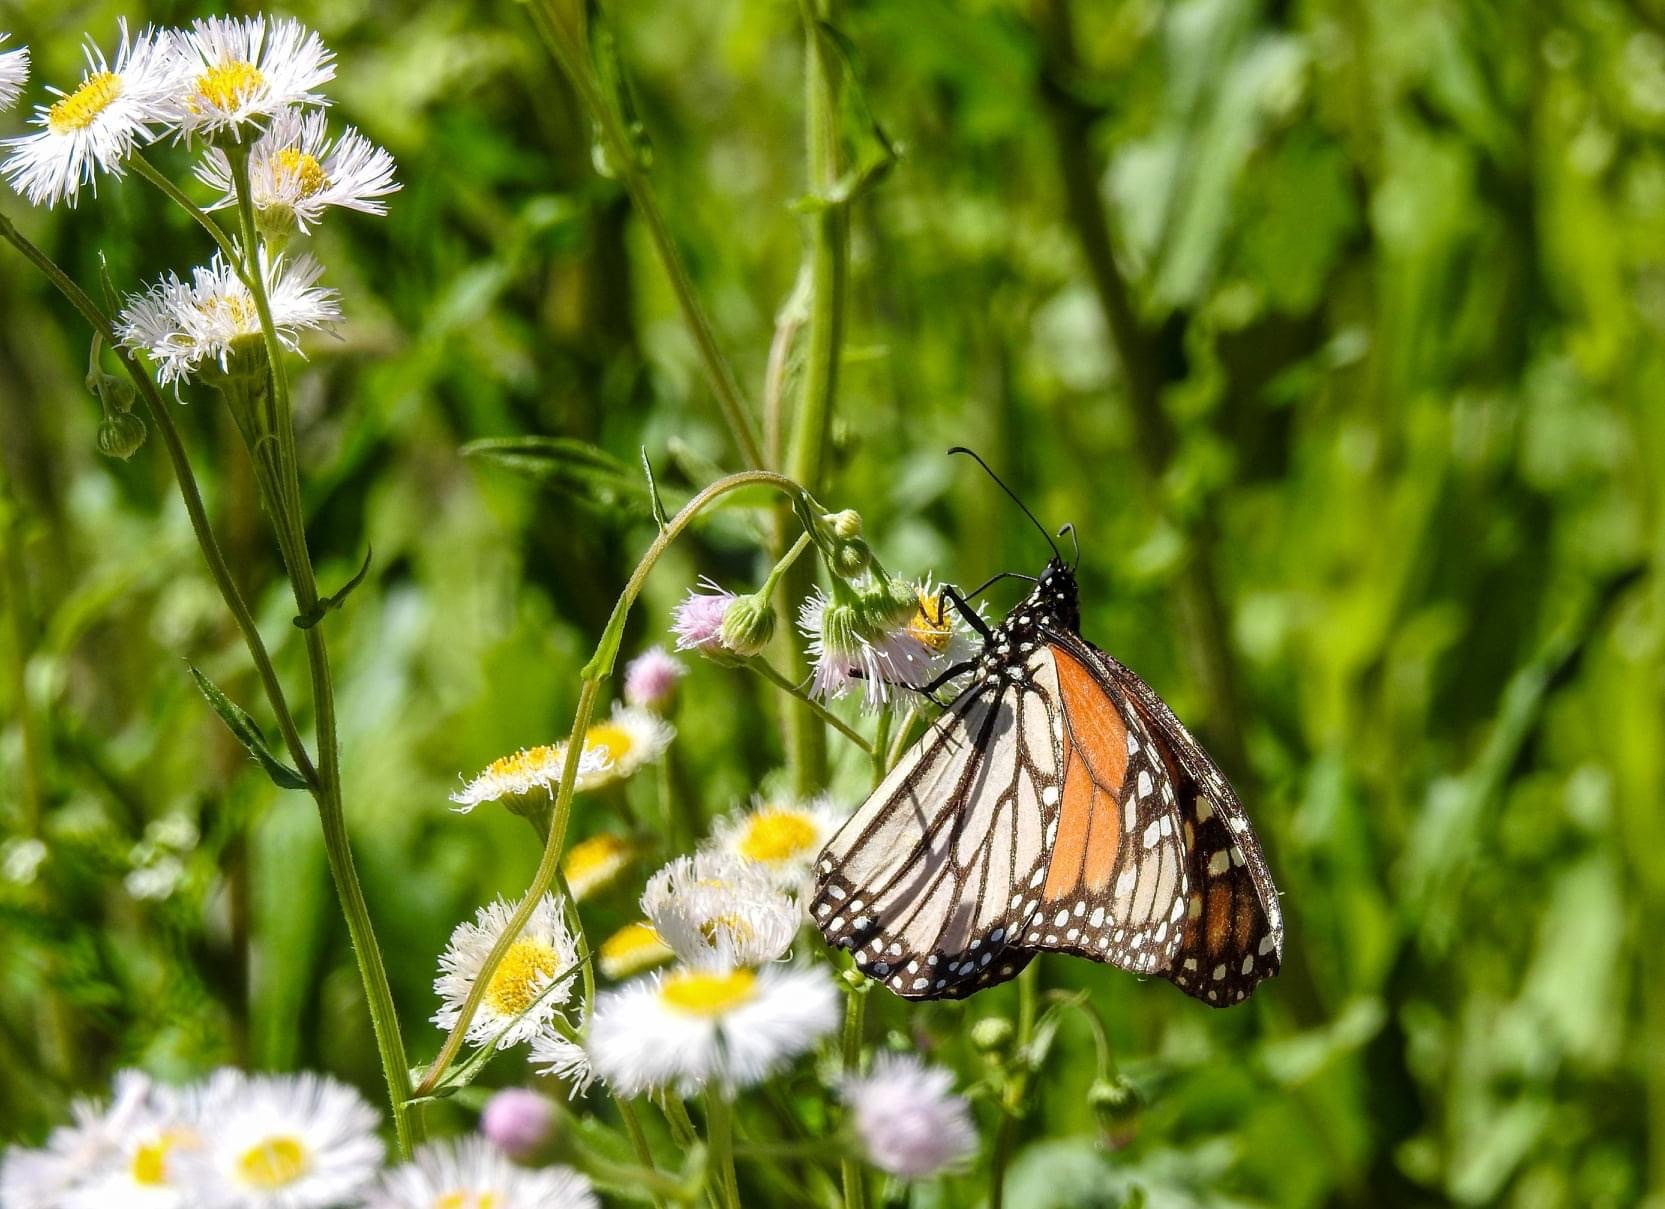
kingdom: Animalia
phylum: Arthropoda
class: Insecta
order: Lepidoptera
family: Nymphalidae
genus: Danaus
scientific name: Danaus plexippus
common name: Monarch
